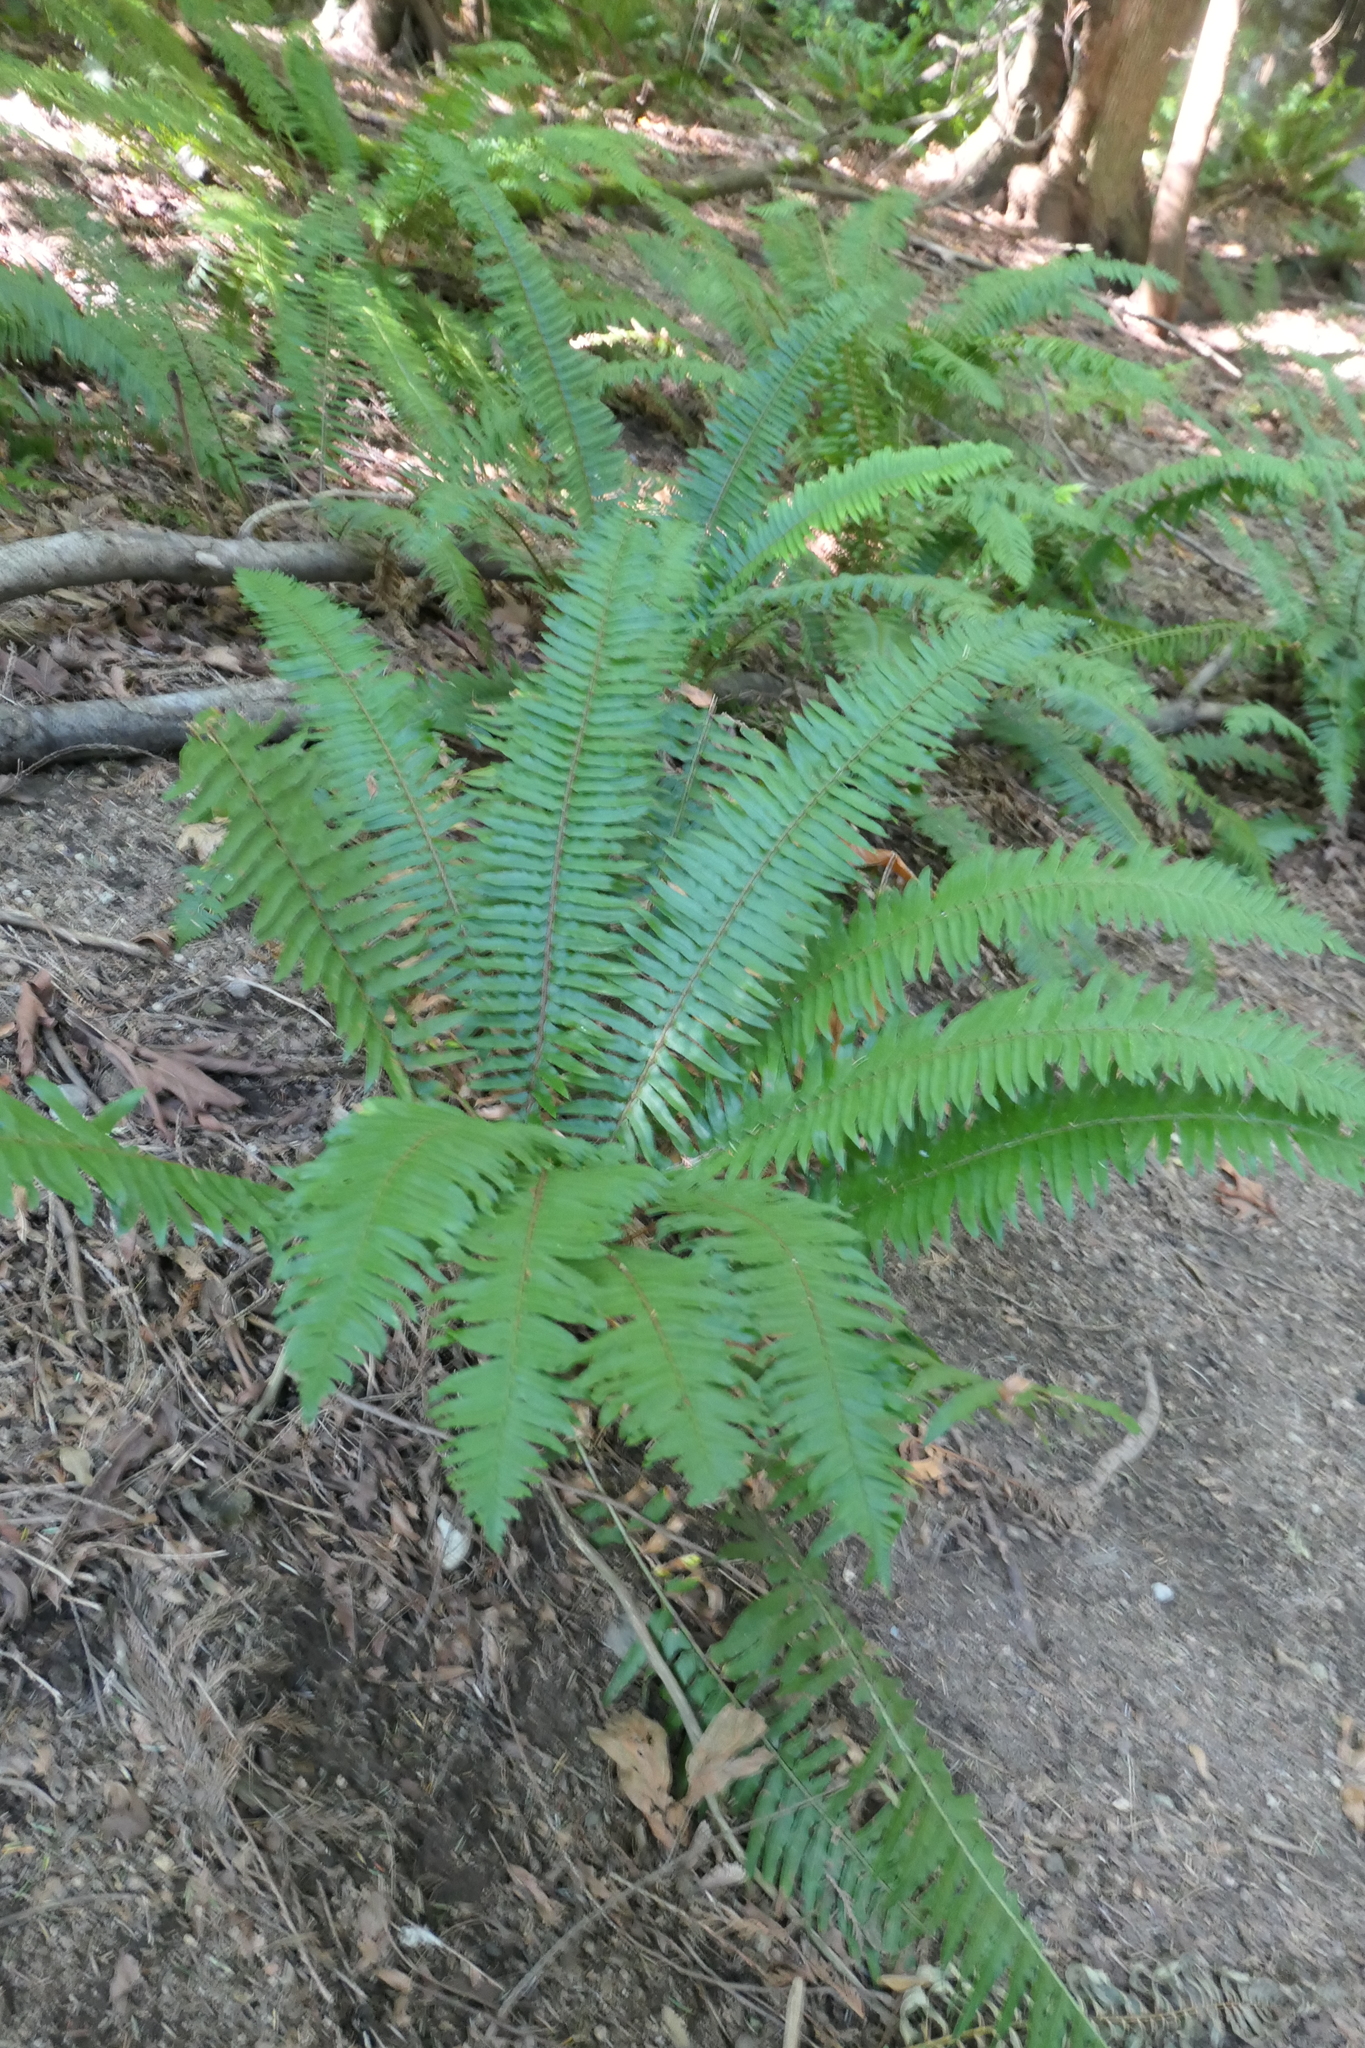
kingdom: Plantae
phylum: Tracheophyta
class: Polypodiopsida
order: Polypodiales
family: Dryopteridaceae
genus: Polystichum
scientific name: Polystichum munitum
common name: Western sword-fern
